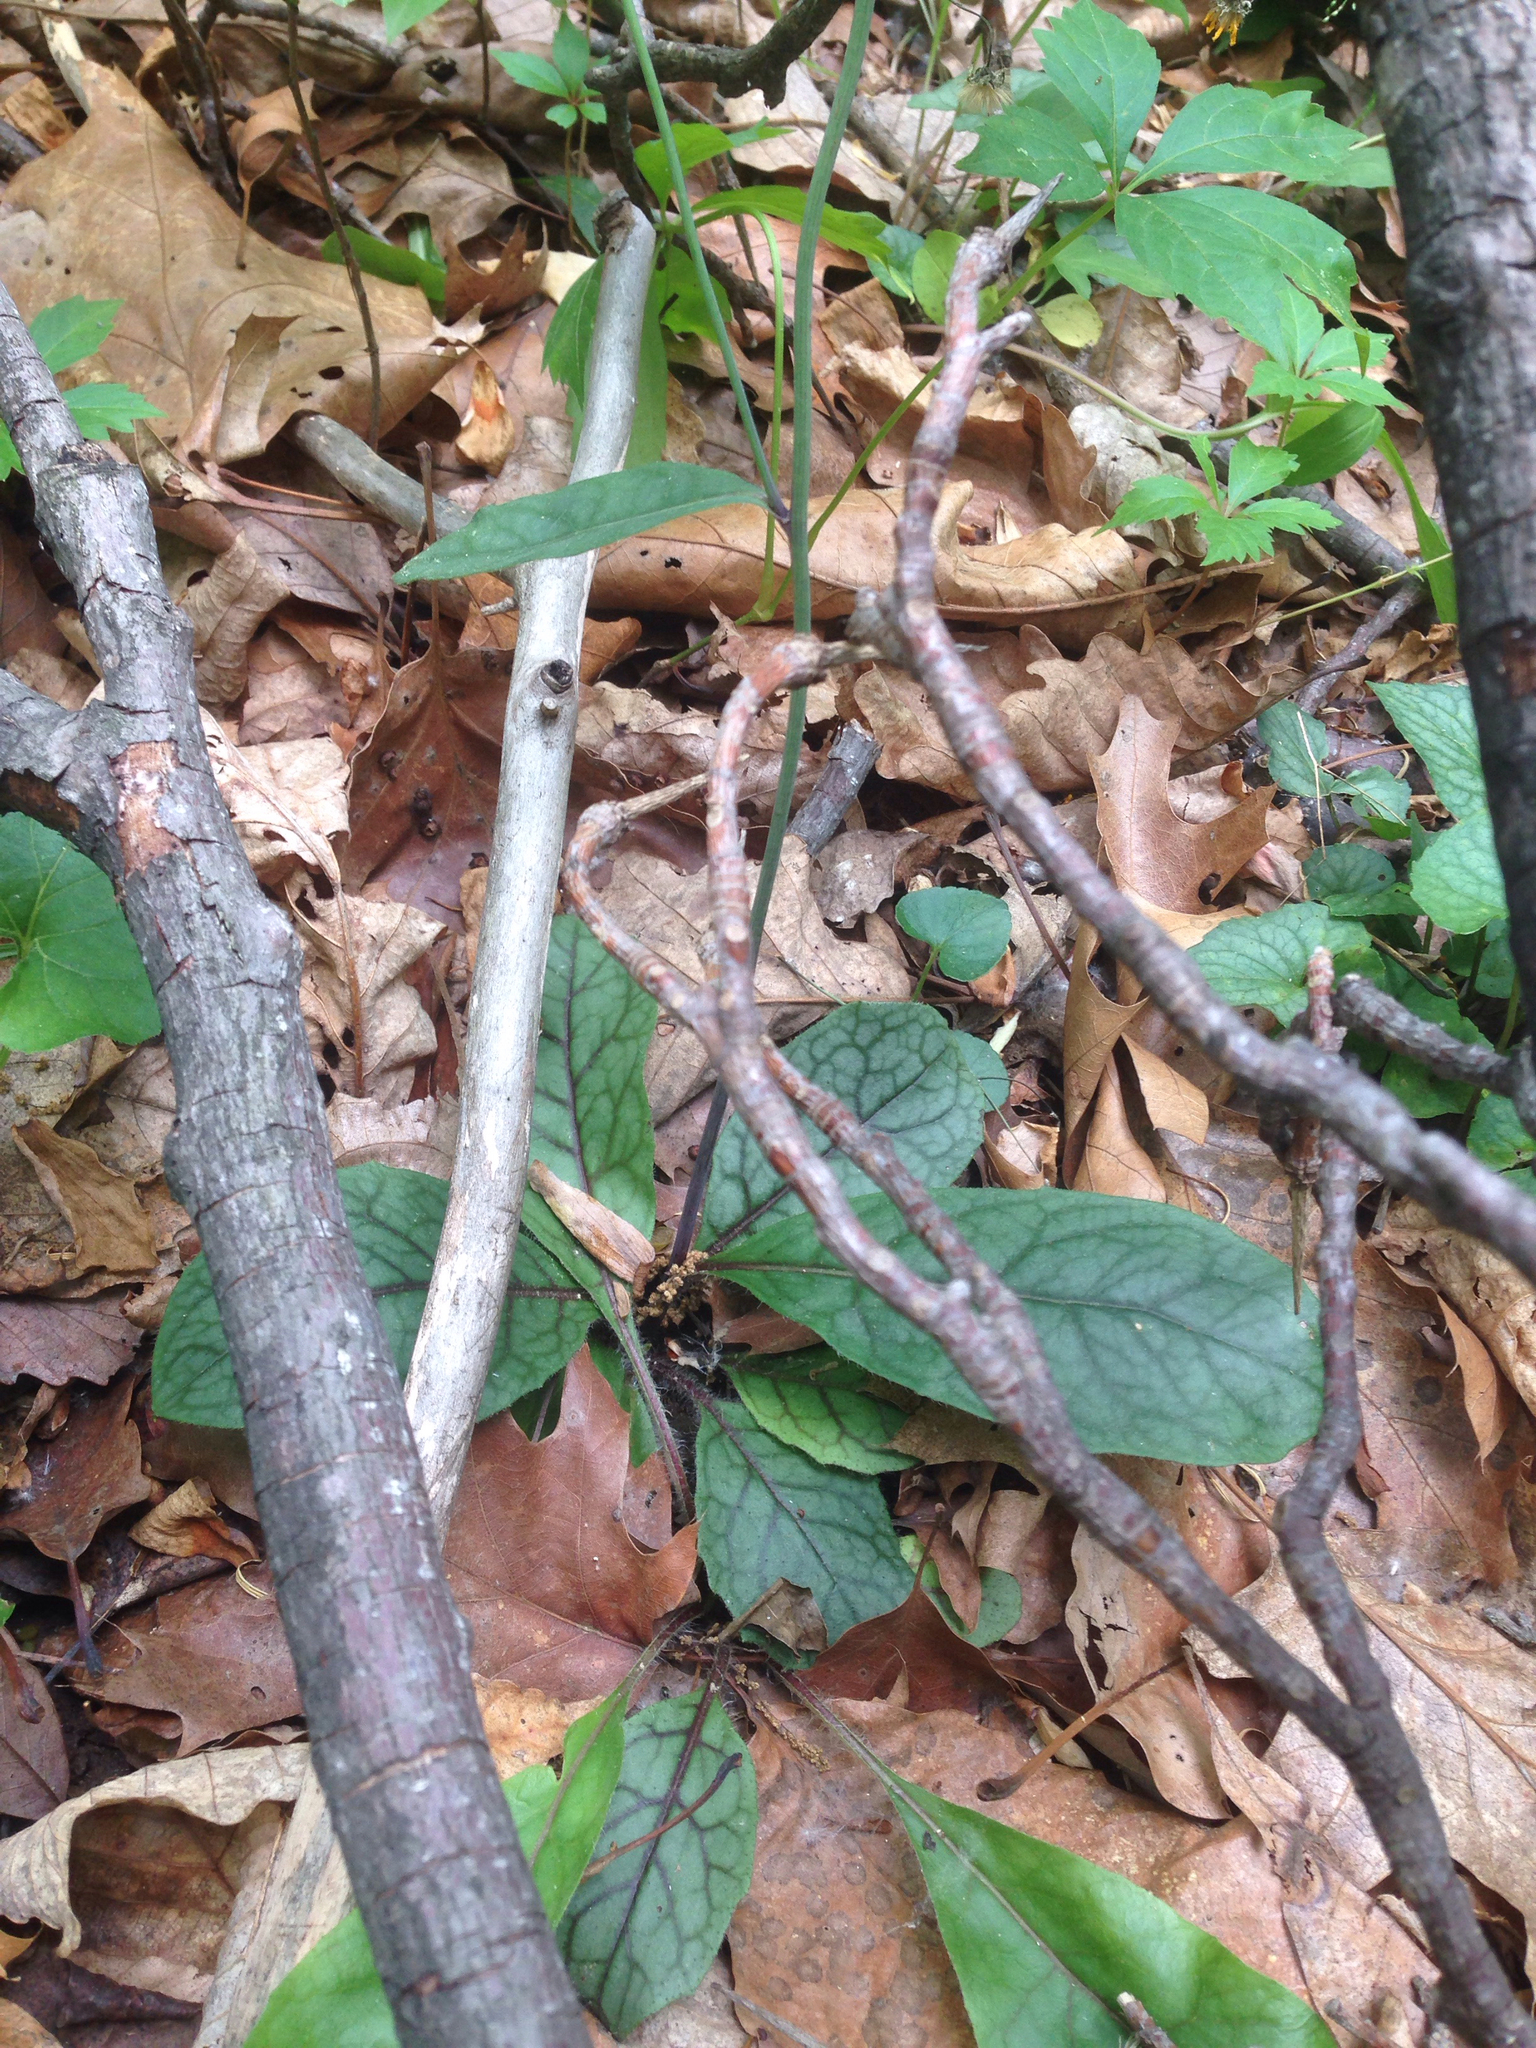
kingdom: Plantae
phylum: Tracheophyta
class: Magnoliopsida
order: Asterales
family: Asteraceae
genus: Hieracium
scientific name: Hieracium venosum
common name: Rattlesnake hawkweed
